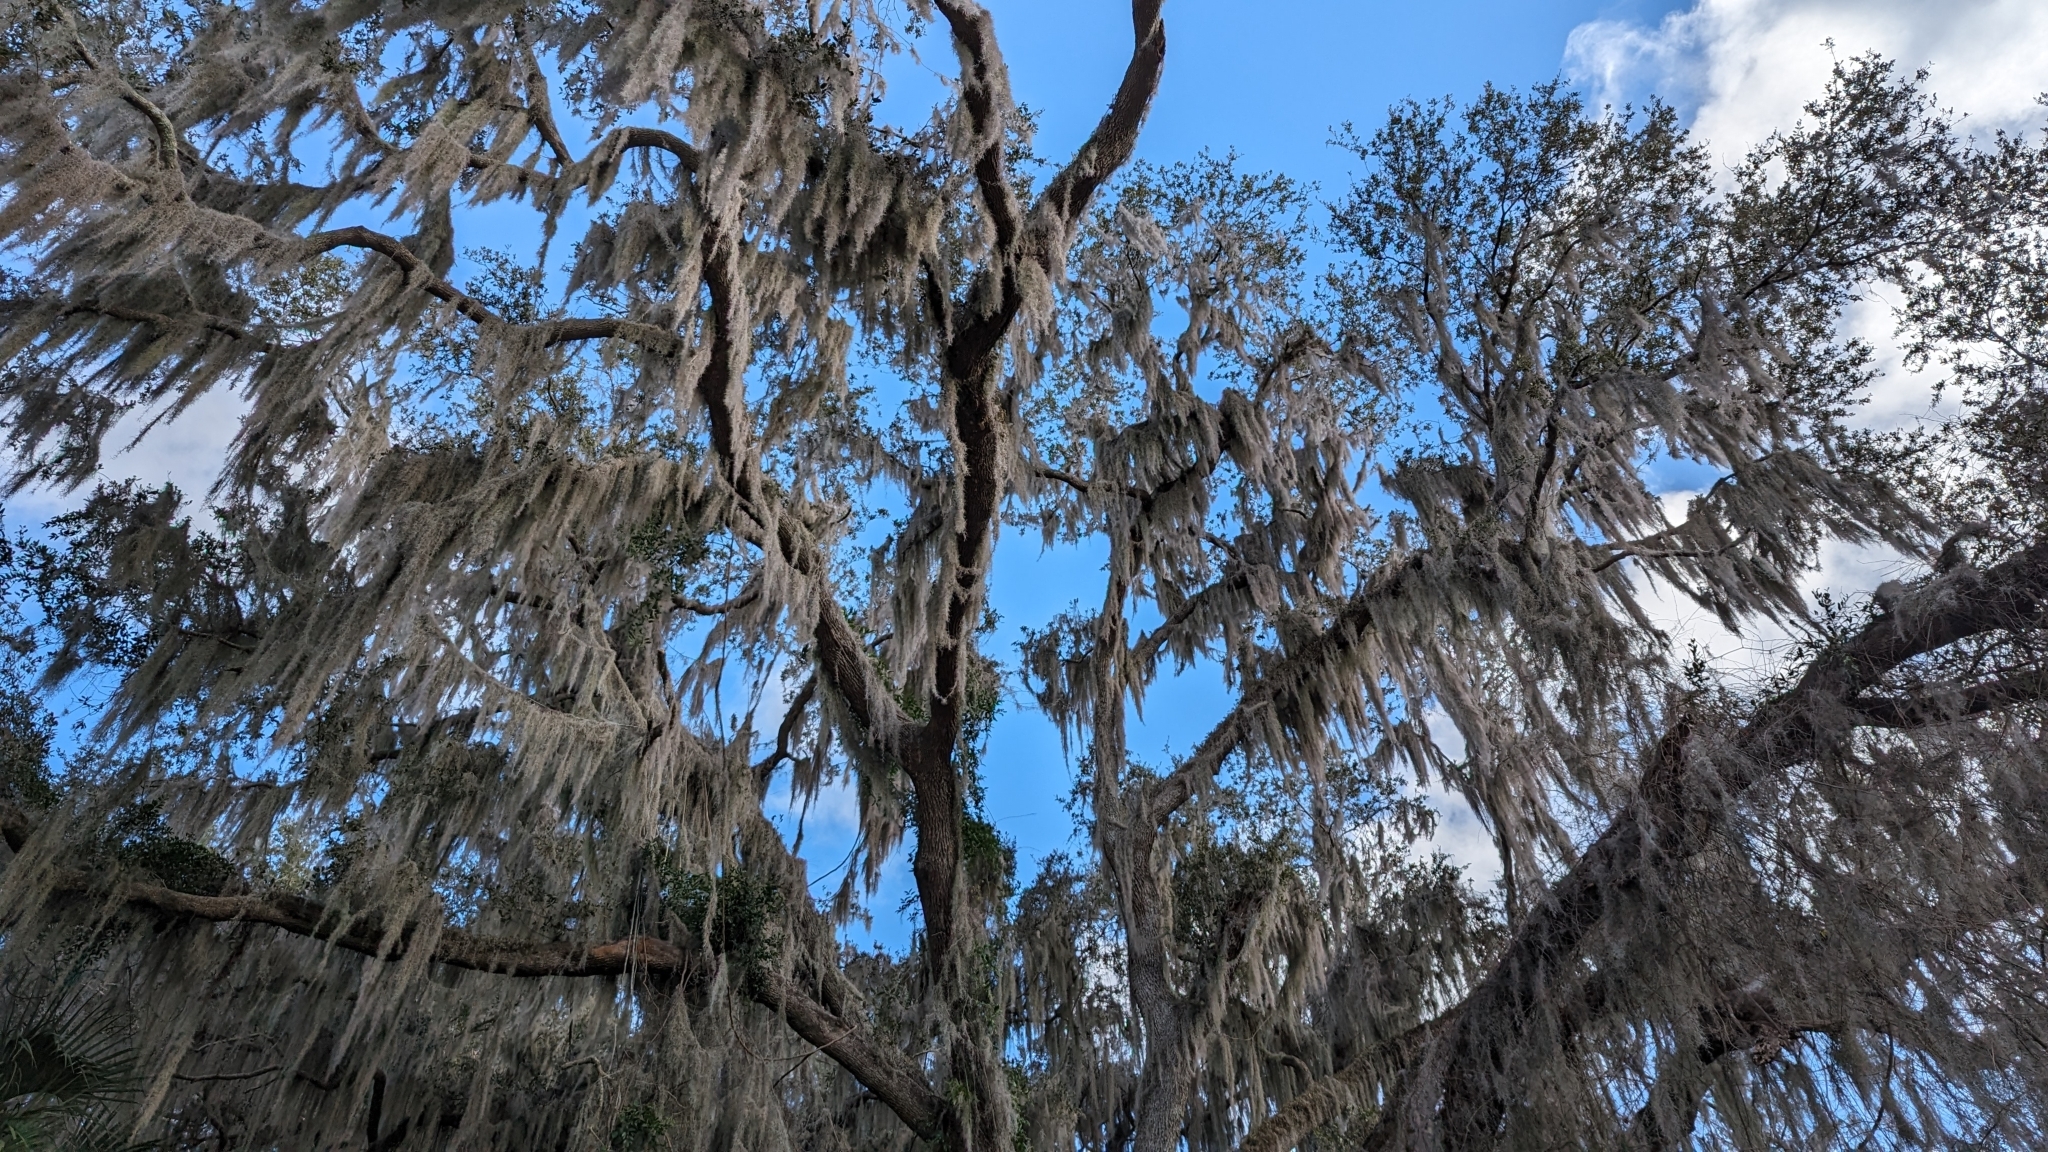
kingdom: Plantae
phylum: Tracheophyta
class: Liliopsida
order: Poales
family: Bromeliaceae
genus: Tillandsia
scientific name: Tillandsia usneoides
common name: Spanish moss
